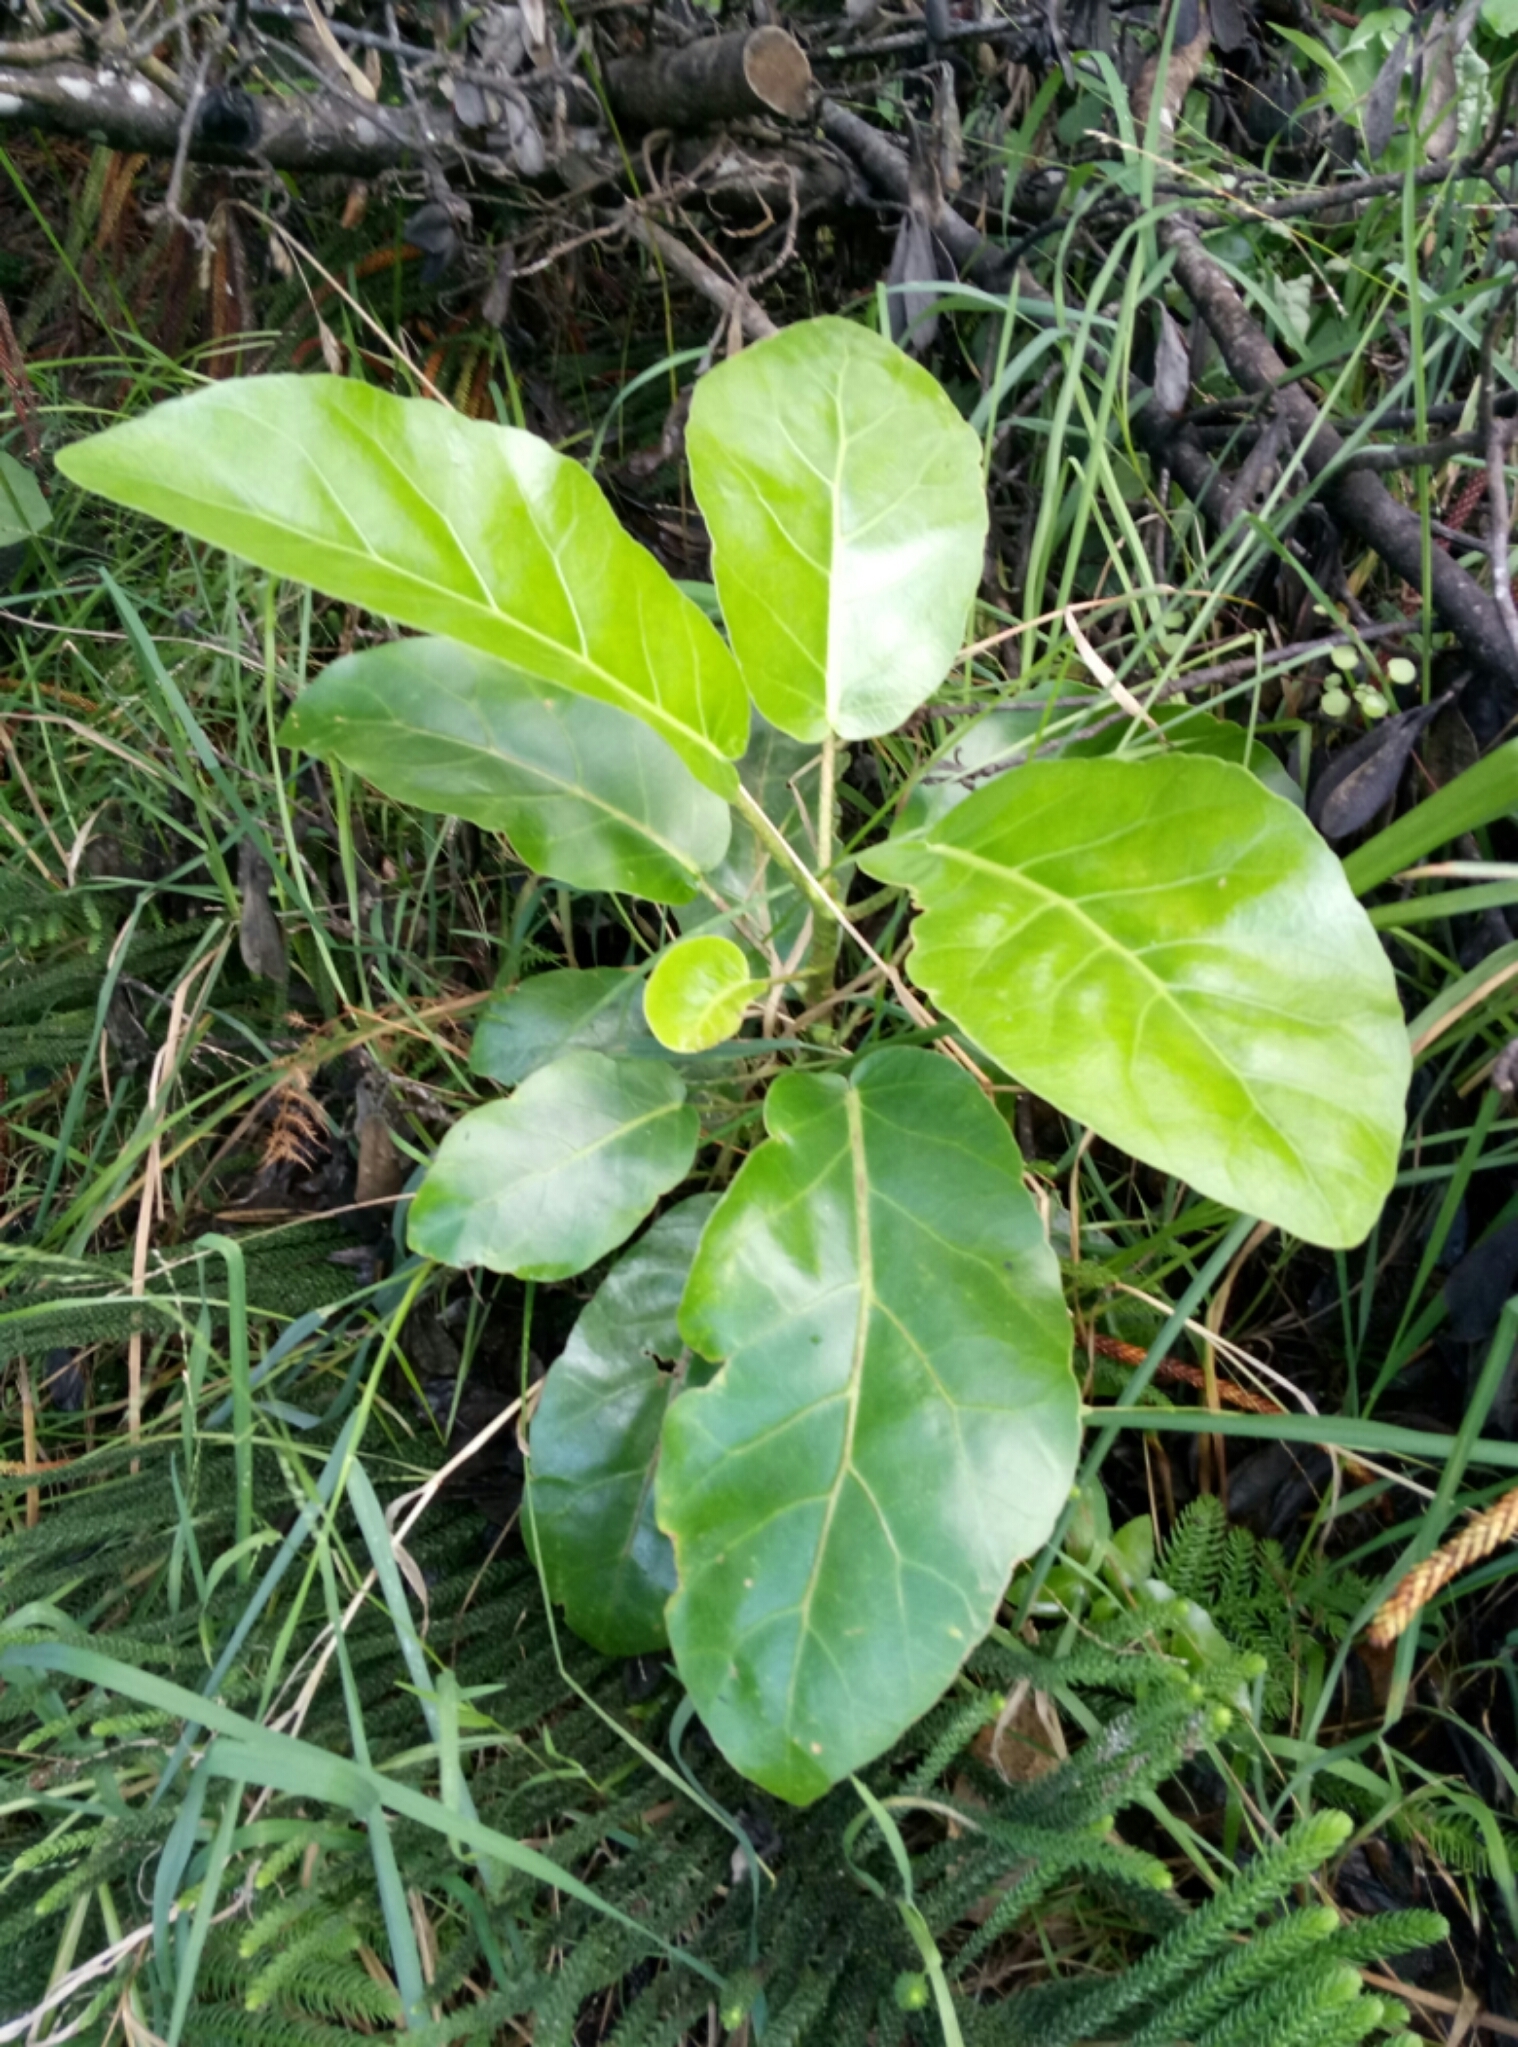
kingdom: Plantae
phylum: Tracheophyta
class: Magnoliopsida
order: Apiales
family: Araliaceae
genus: Meryta
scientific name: Meryta sinclairii
